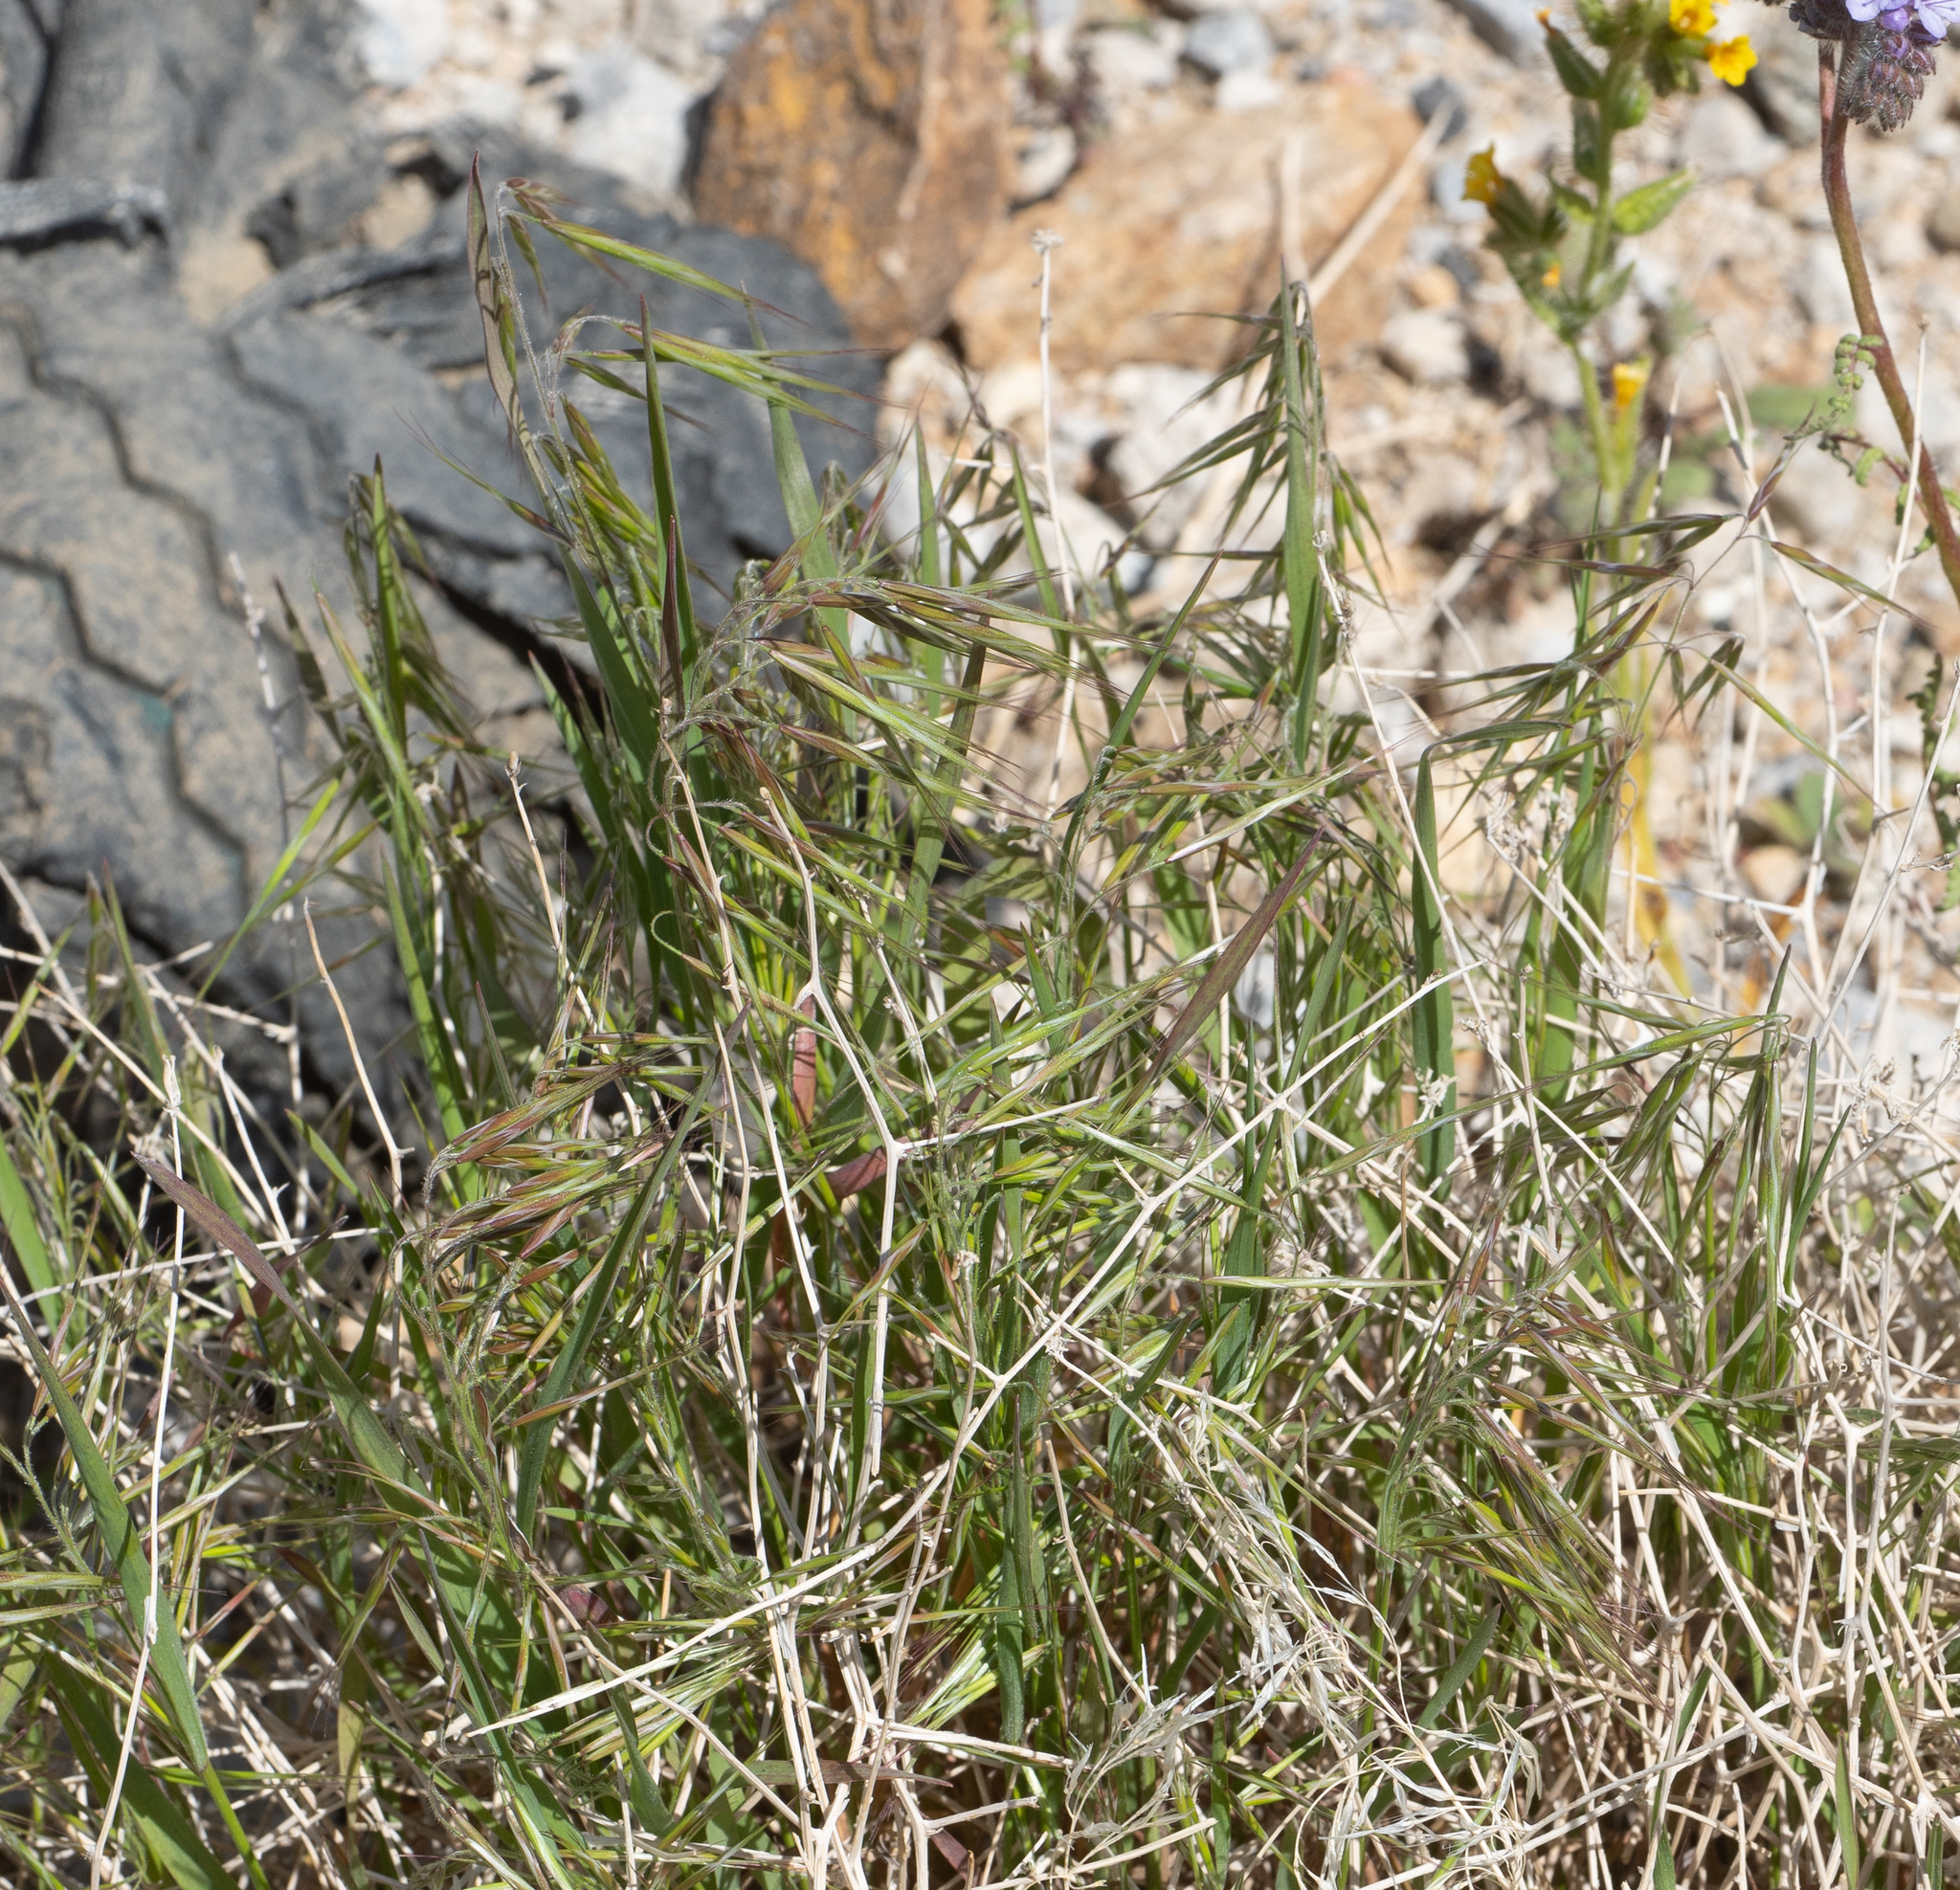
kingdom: Plantae
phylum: Tracheophyta
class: Liliopsida
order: Poales
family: Poaceae
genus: Bromus
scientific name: Bromus tectorum
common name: Cheatgrass
